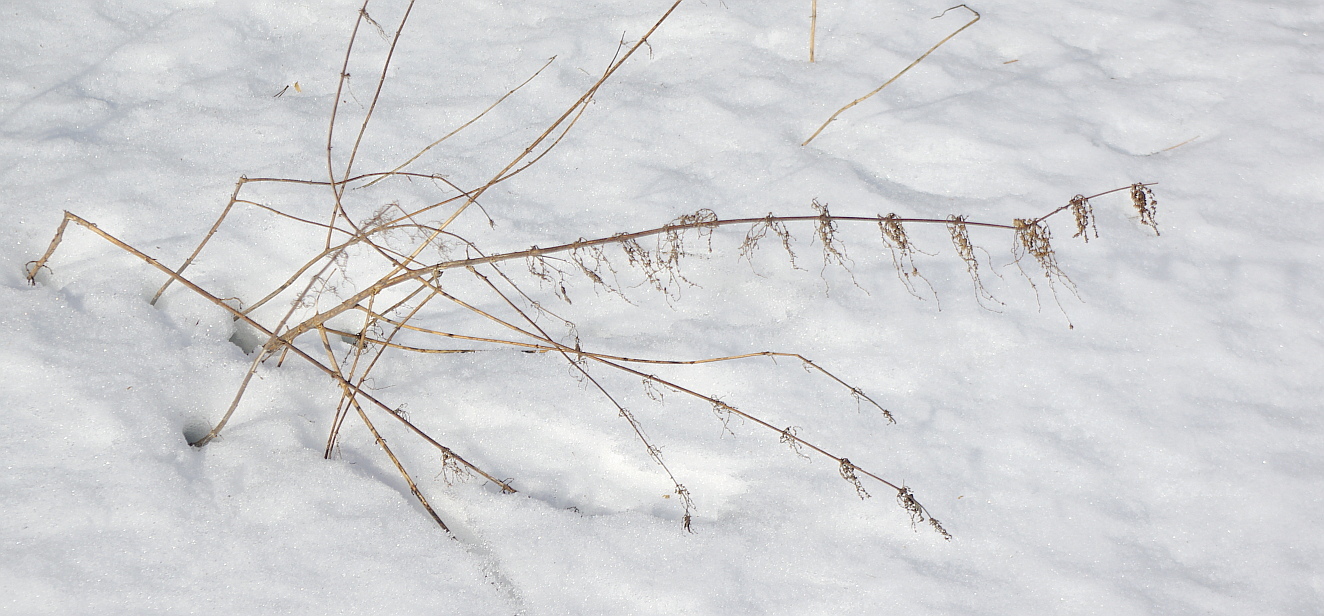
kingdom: Plantae
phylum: Tracheophyta
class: Magnoliopsida
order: Rosales
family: Urticaceae
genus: Urtica
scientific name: Urtica dioica
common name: Common nettle
